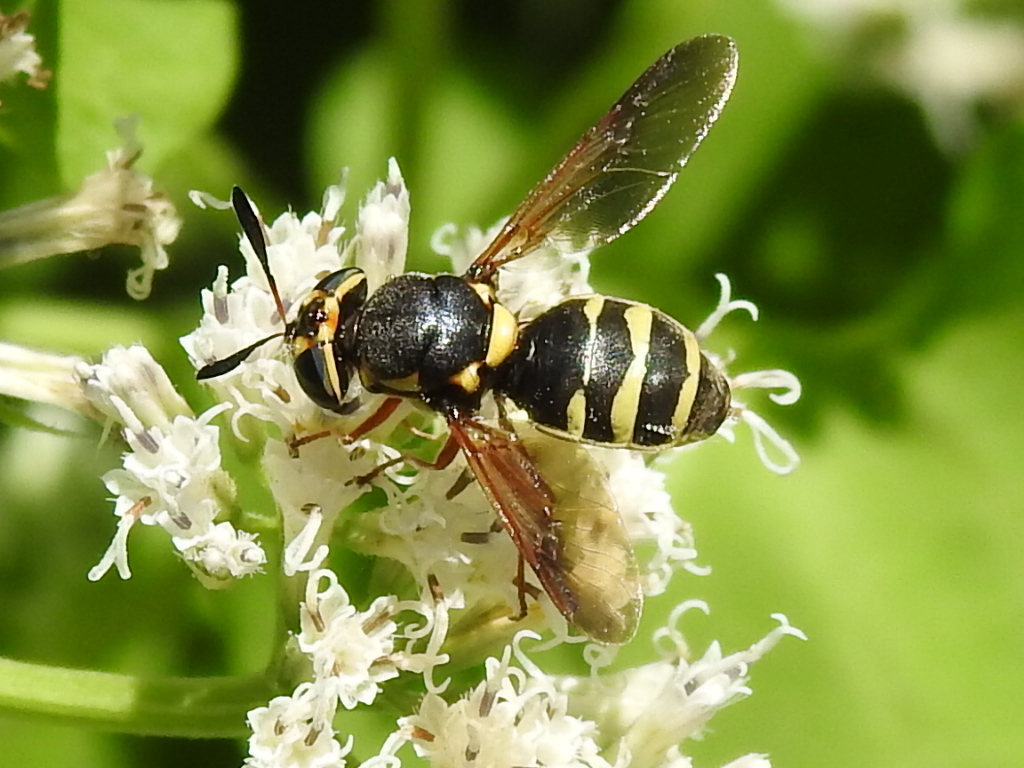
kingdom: Animalia
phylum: Arthropoda
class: Insecta
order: Diptera
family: Stratiomyidae
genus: Hoplitimyia
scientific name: Hoplitimyia constans
